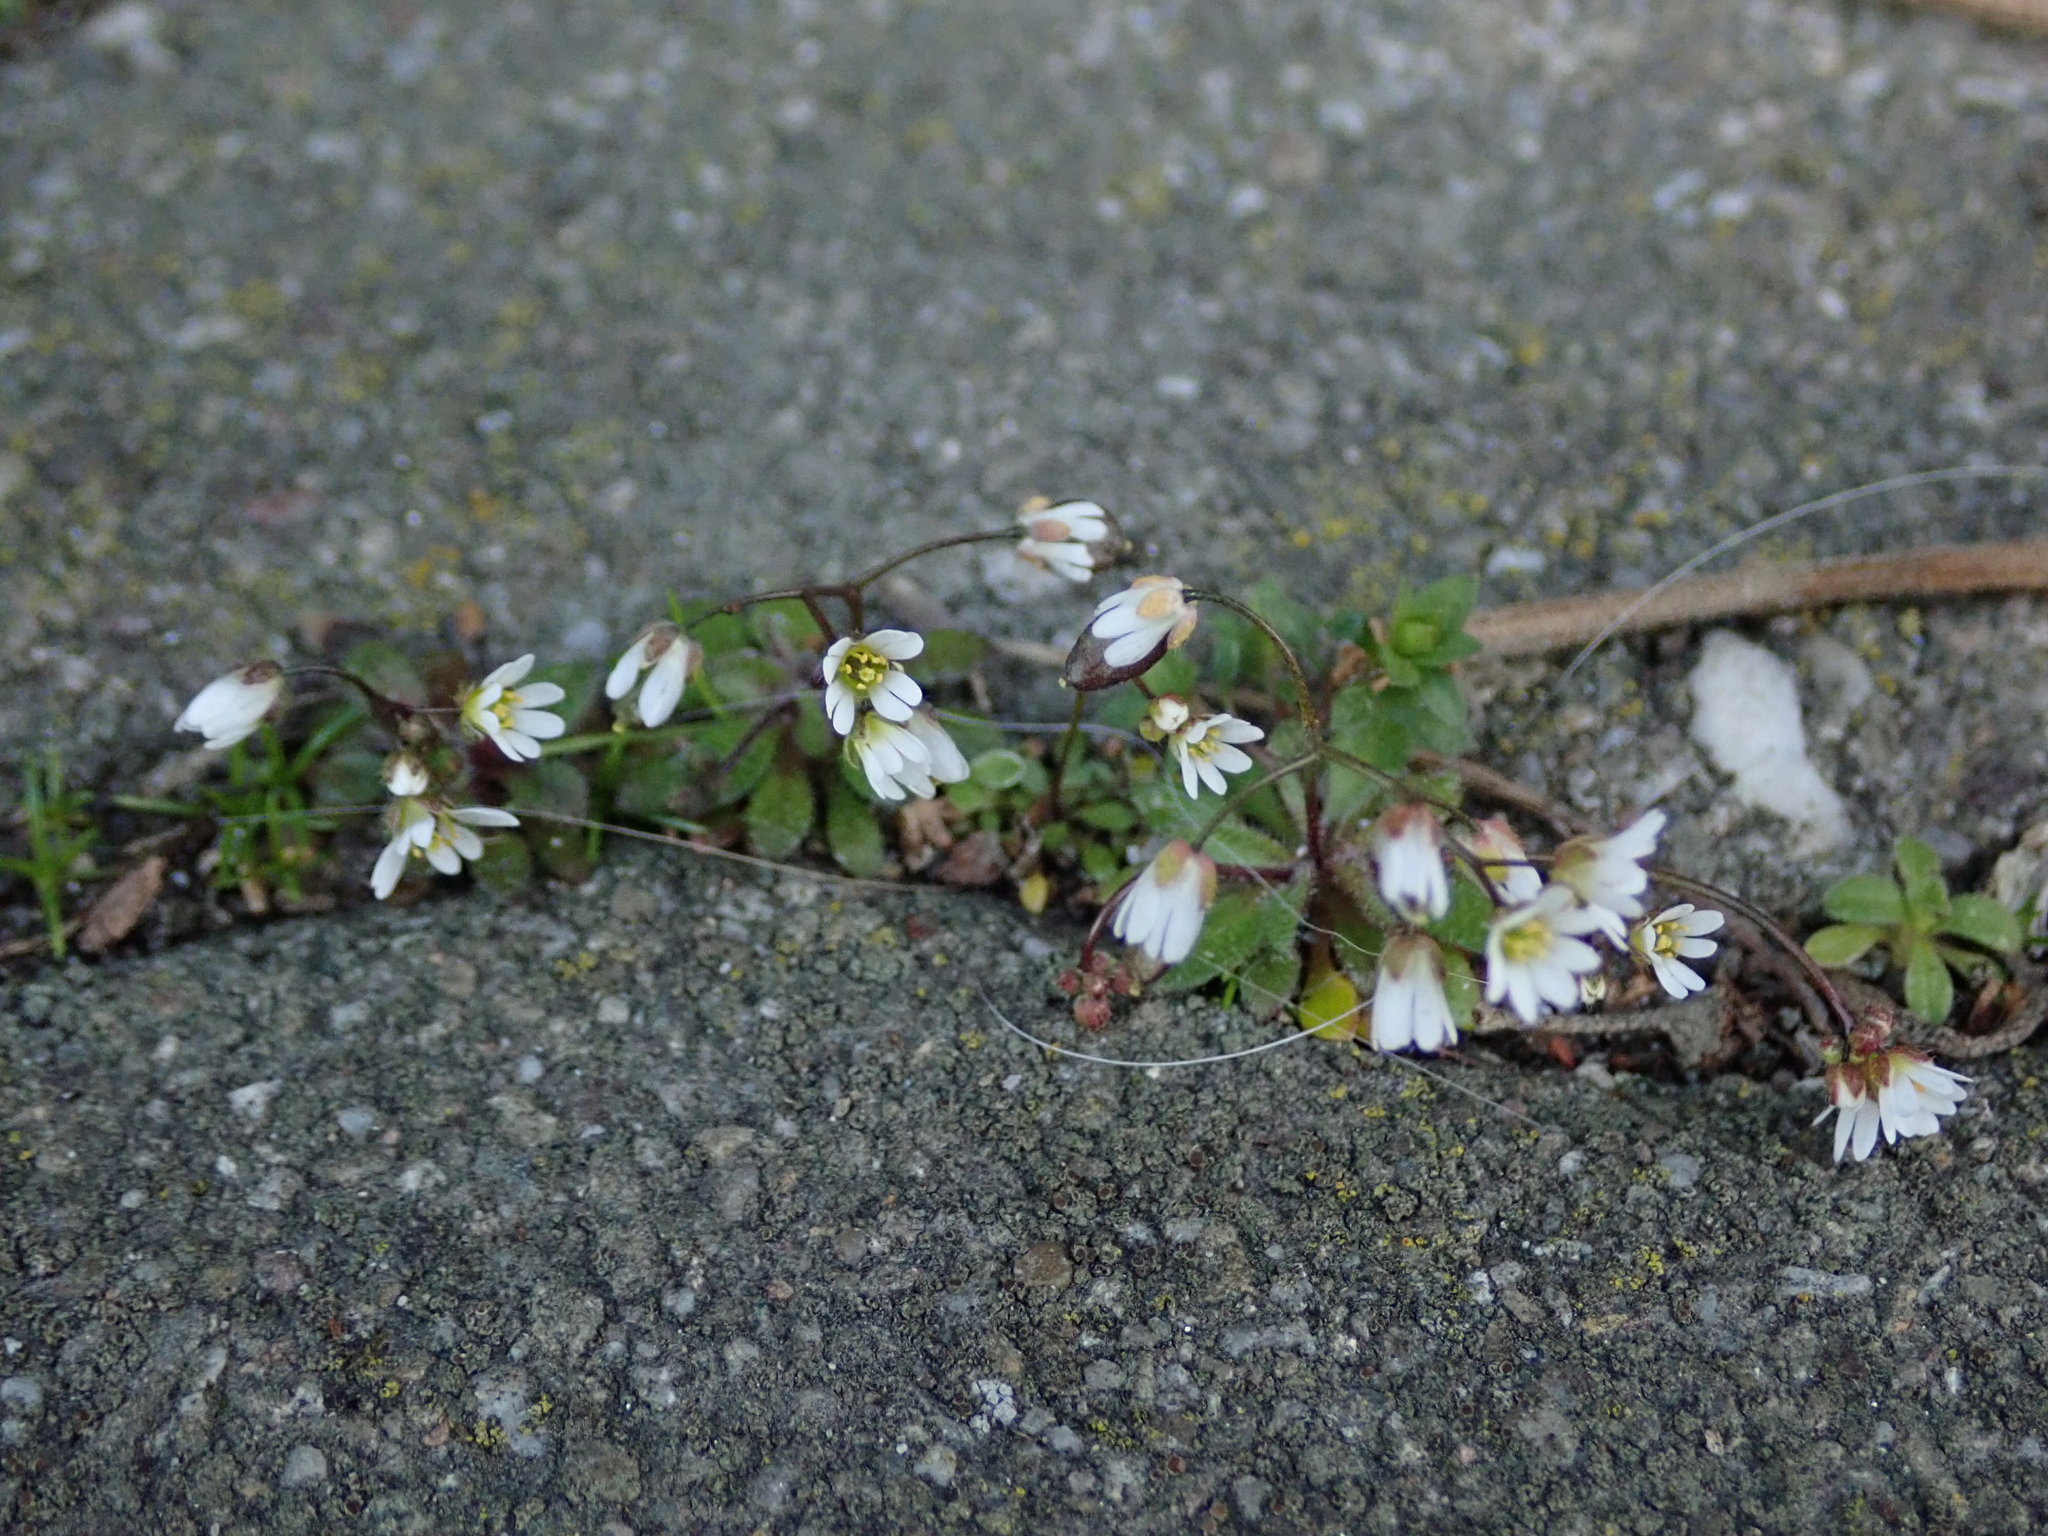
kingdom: Plantae
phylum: Tracheophyta
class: Magnoliopsida
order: Brassicales
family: Brassicaceae
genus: Draba
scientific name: Draba verna
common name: Spring draba
